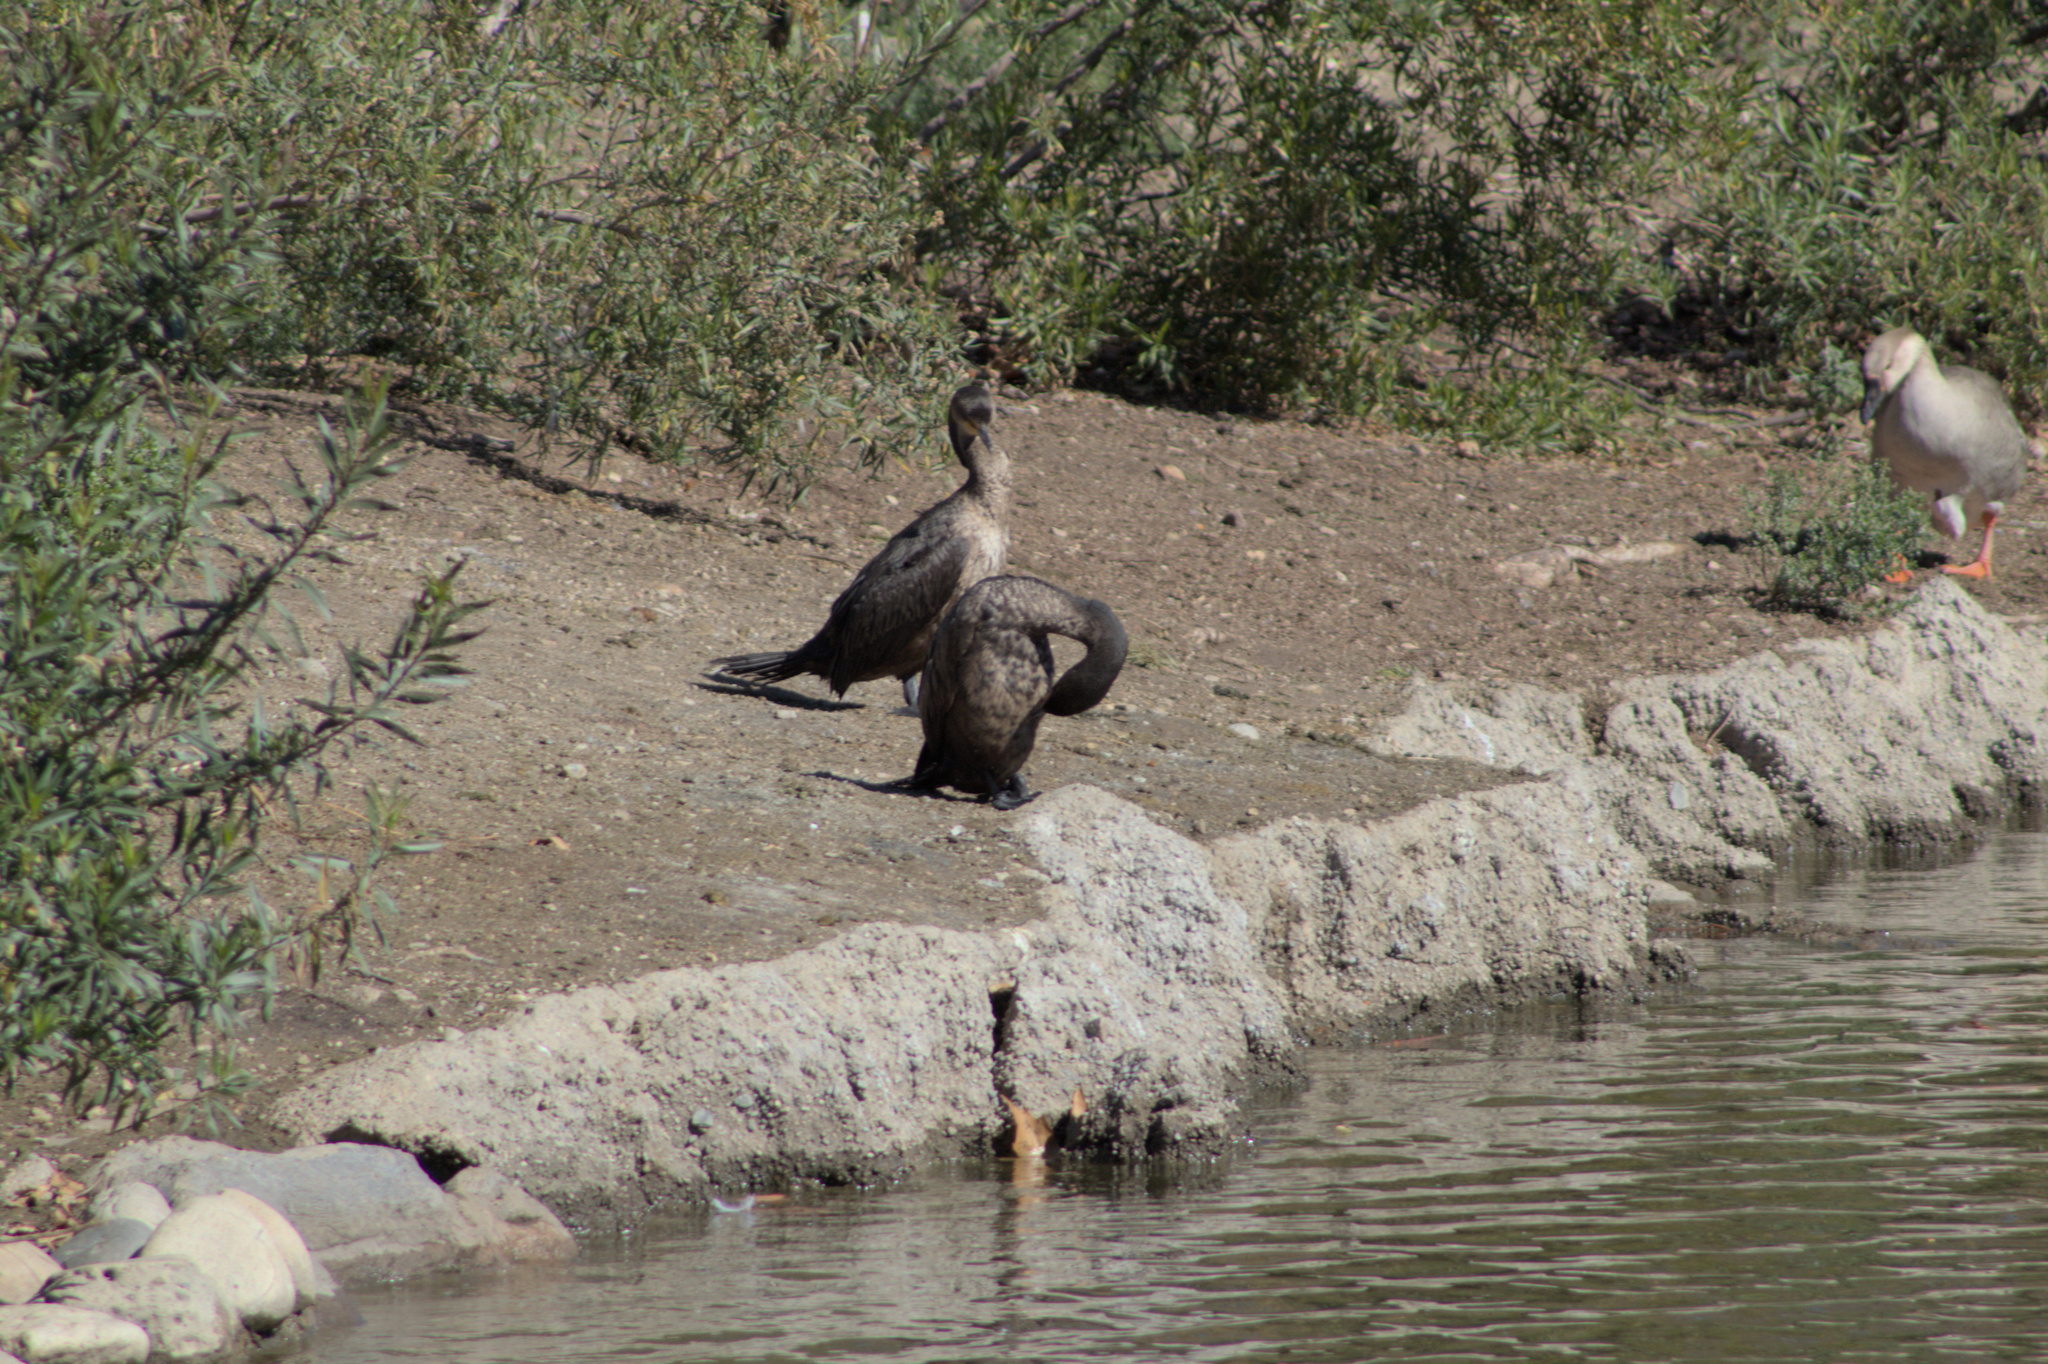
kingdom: Animalia
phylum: Chordata
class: Aves
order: Suliformes
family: Phalacrocoracidae
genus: Phalacrocorax
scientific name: Phalacrocorax auritus
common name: Double-crested cormorant
